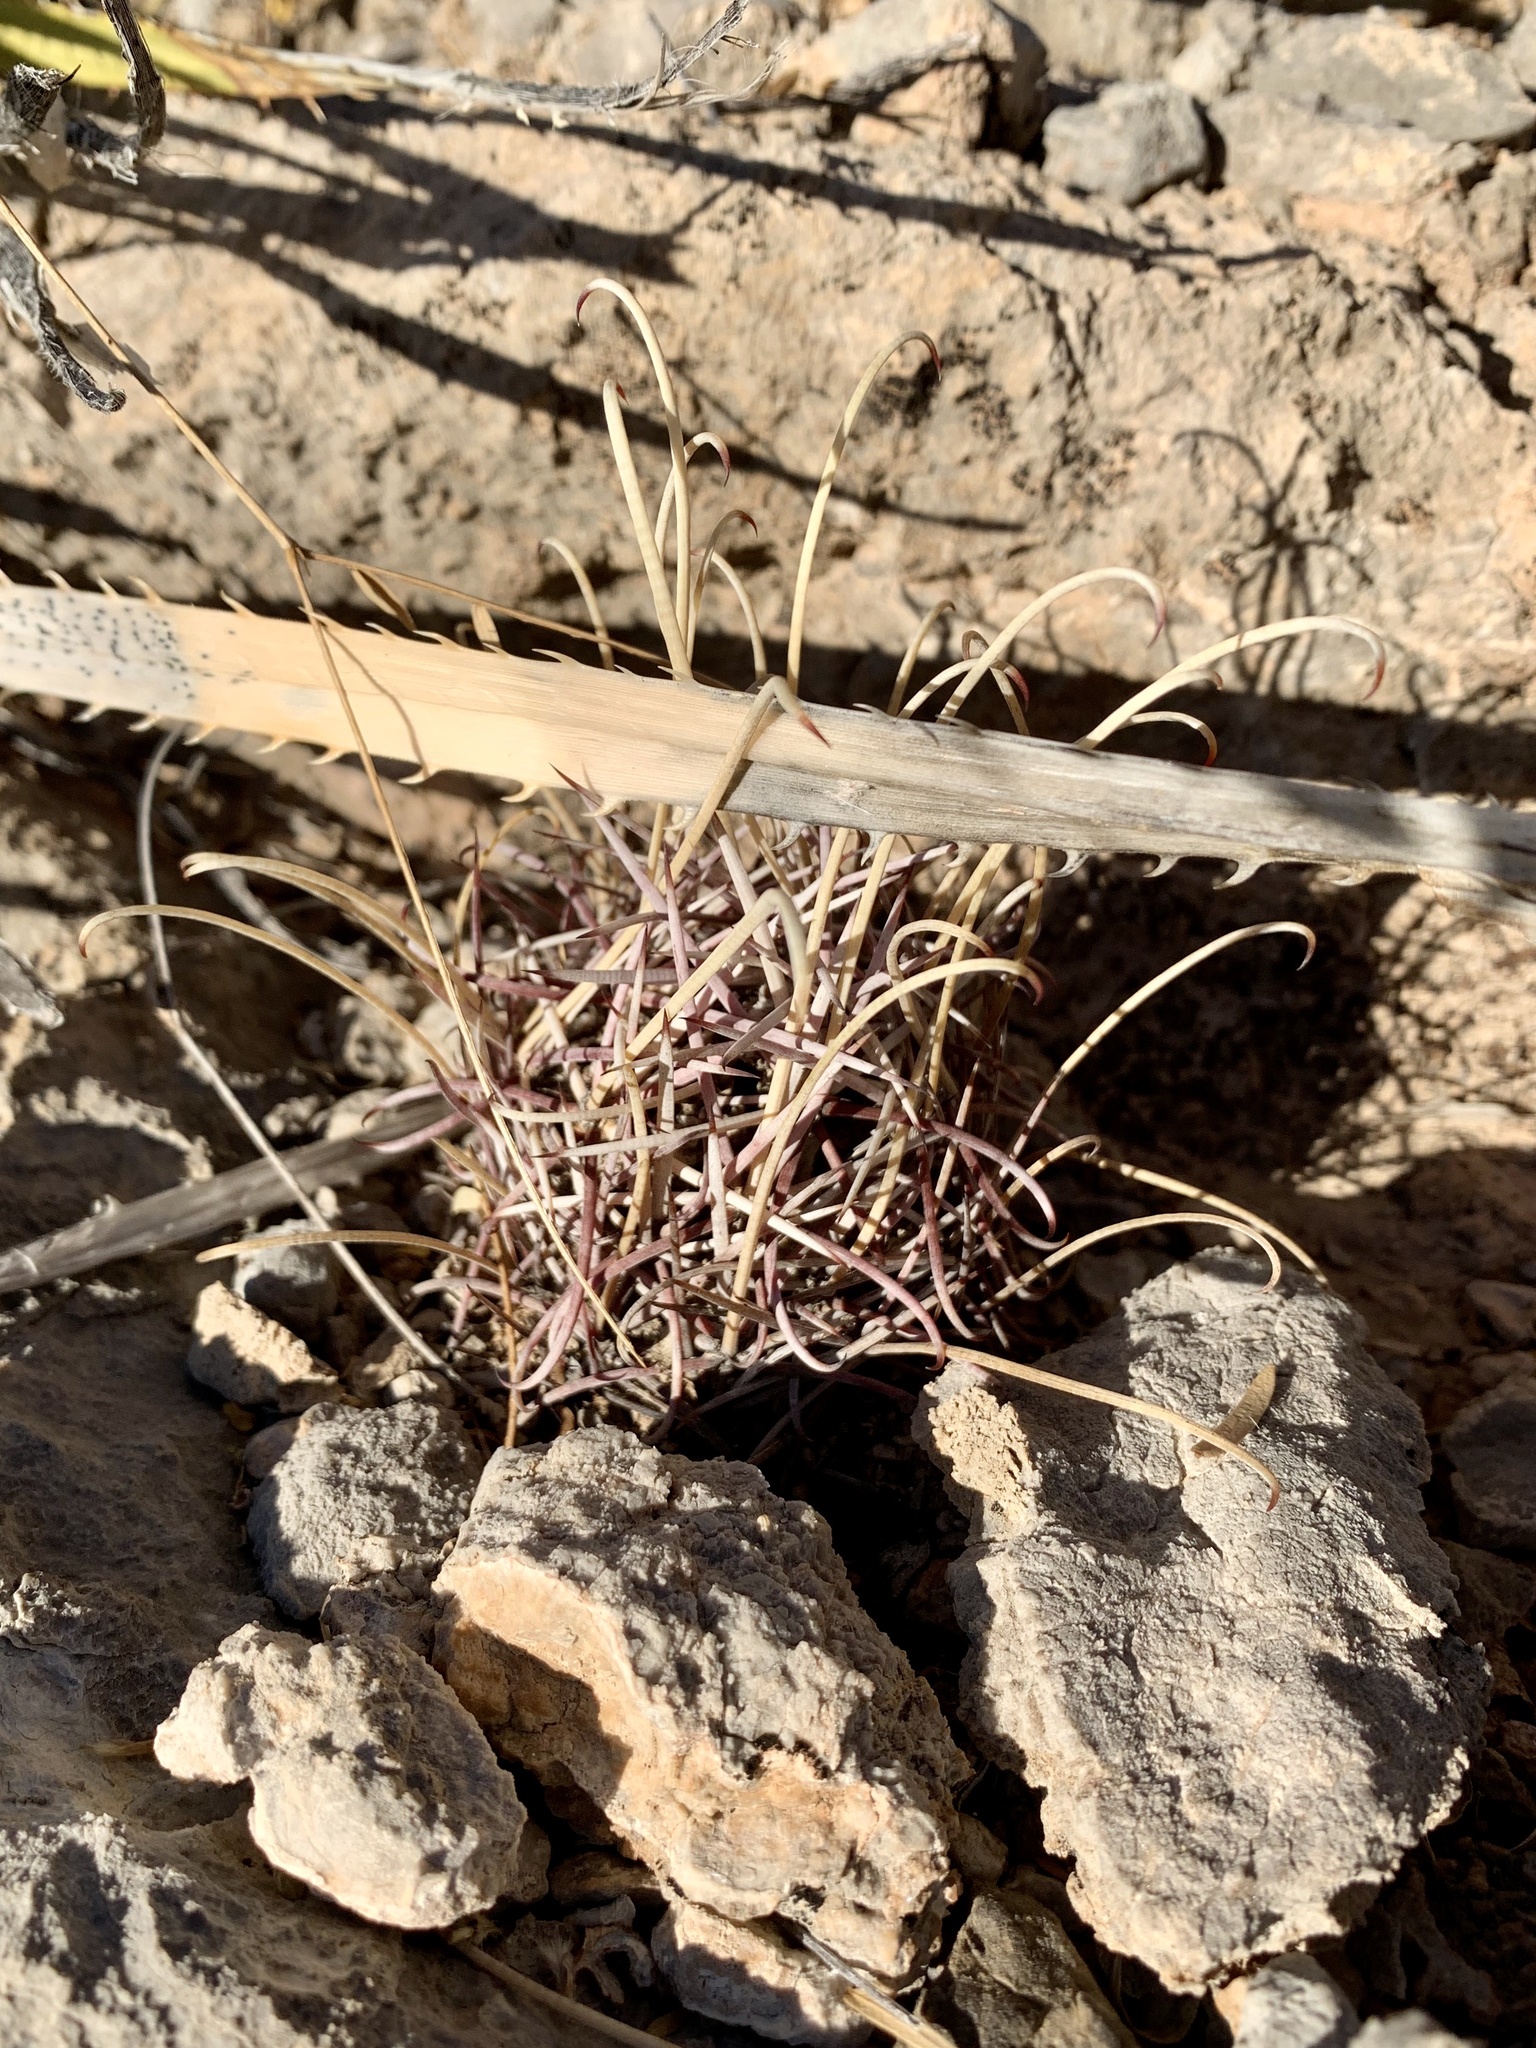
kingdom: Plantae
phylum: Tracheophyta
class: Magnoliopsida
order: Caryophyllales
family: Cactaceae
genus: Ferocactus
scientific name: Ferocactus uncinatus
